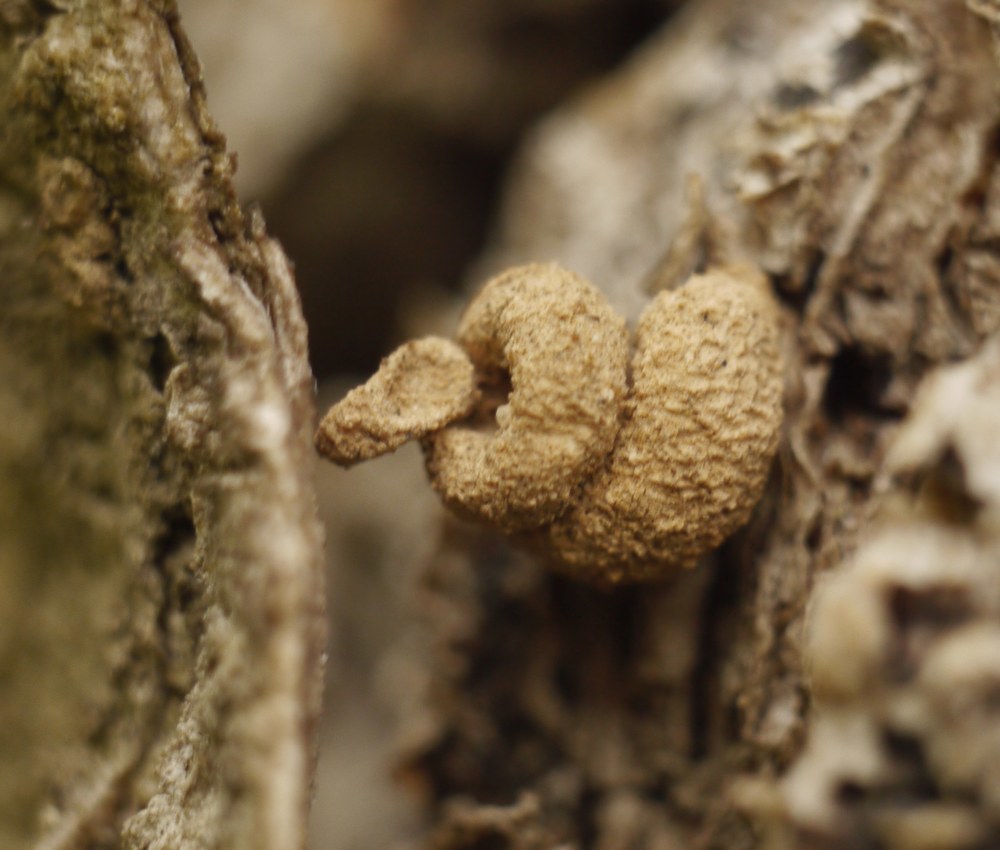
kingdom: Animalia
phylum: Arthropoda
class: Insecta
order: Lepidoptera
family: Psychidae
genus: Apterona
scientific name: Apterona helicoidella
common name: Moth
